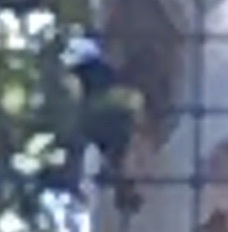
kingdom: Animalia
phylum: Chordata
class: Aves
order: Passeriformes
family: Cardinalidae
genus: Passerina
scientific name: Passerina ciris
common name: Painted bunting
